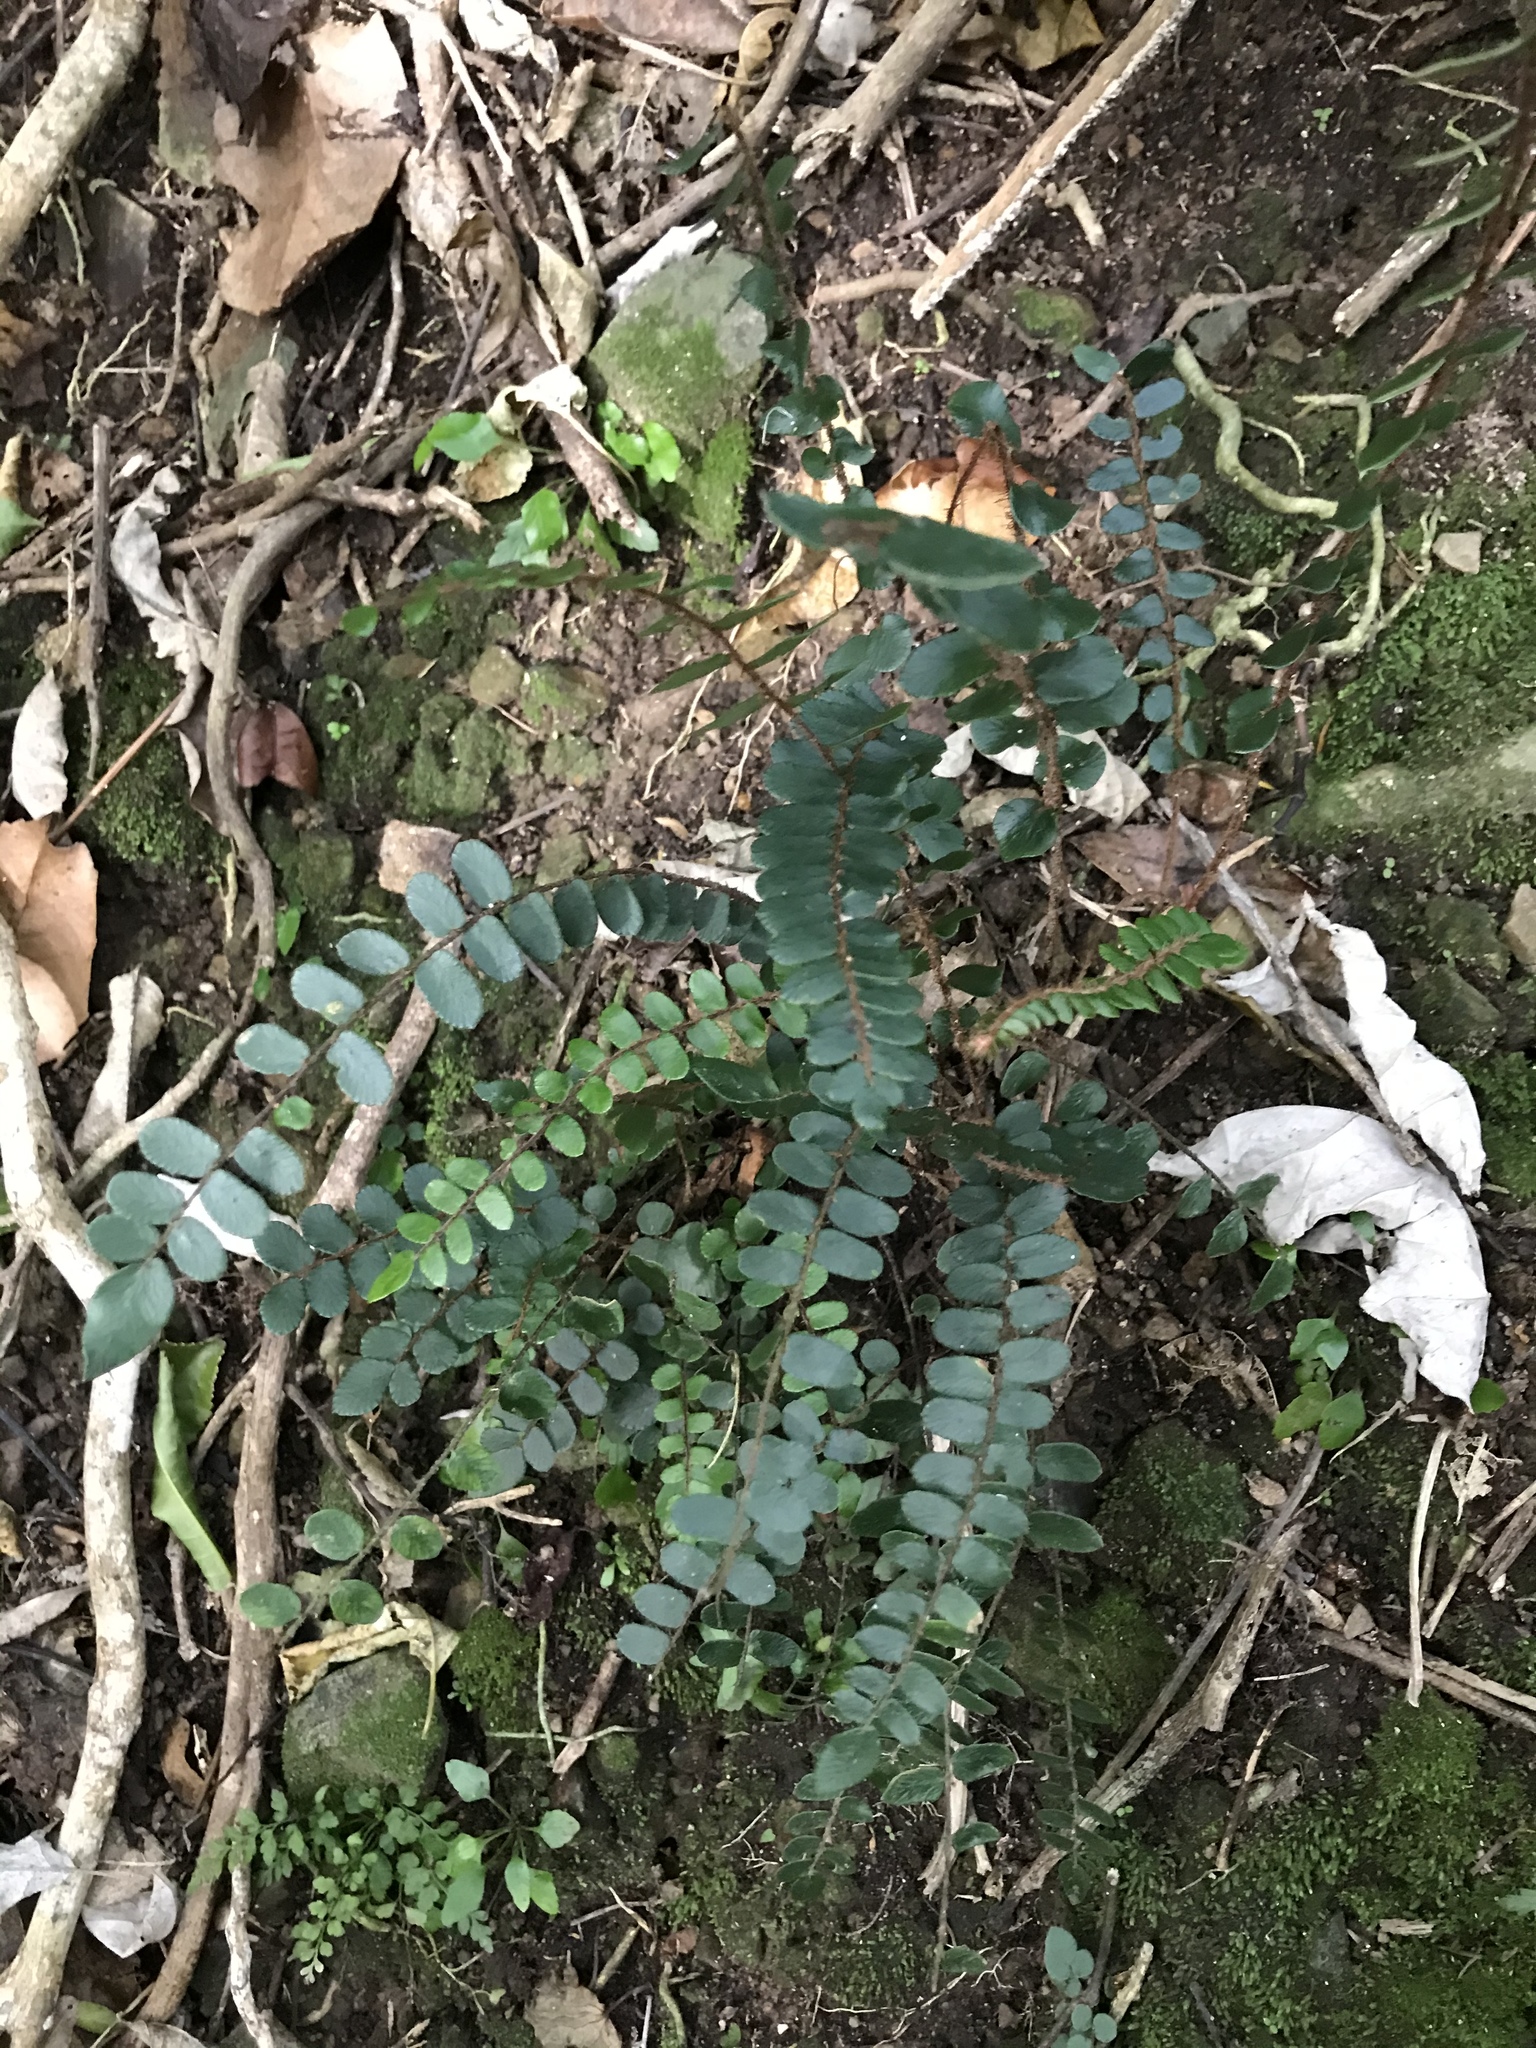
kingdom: Plantae
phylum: Tracheophyta
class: Polypodiopsida
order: Polypodiales
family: Pteridaceae
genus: Pellaea
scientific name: Pellaea rotundifolia
